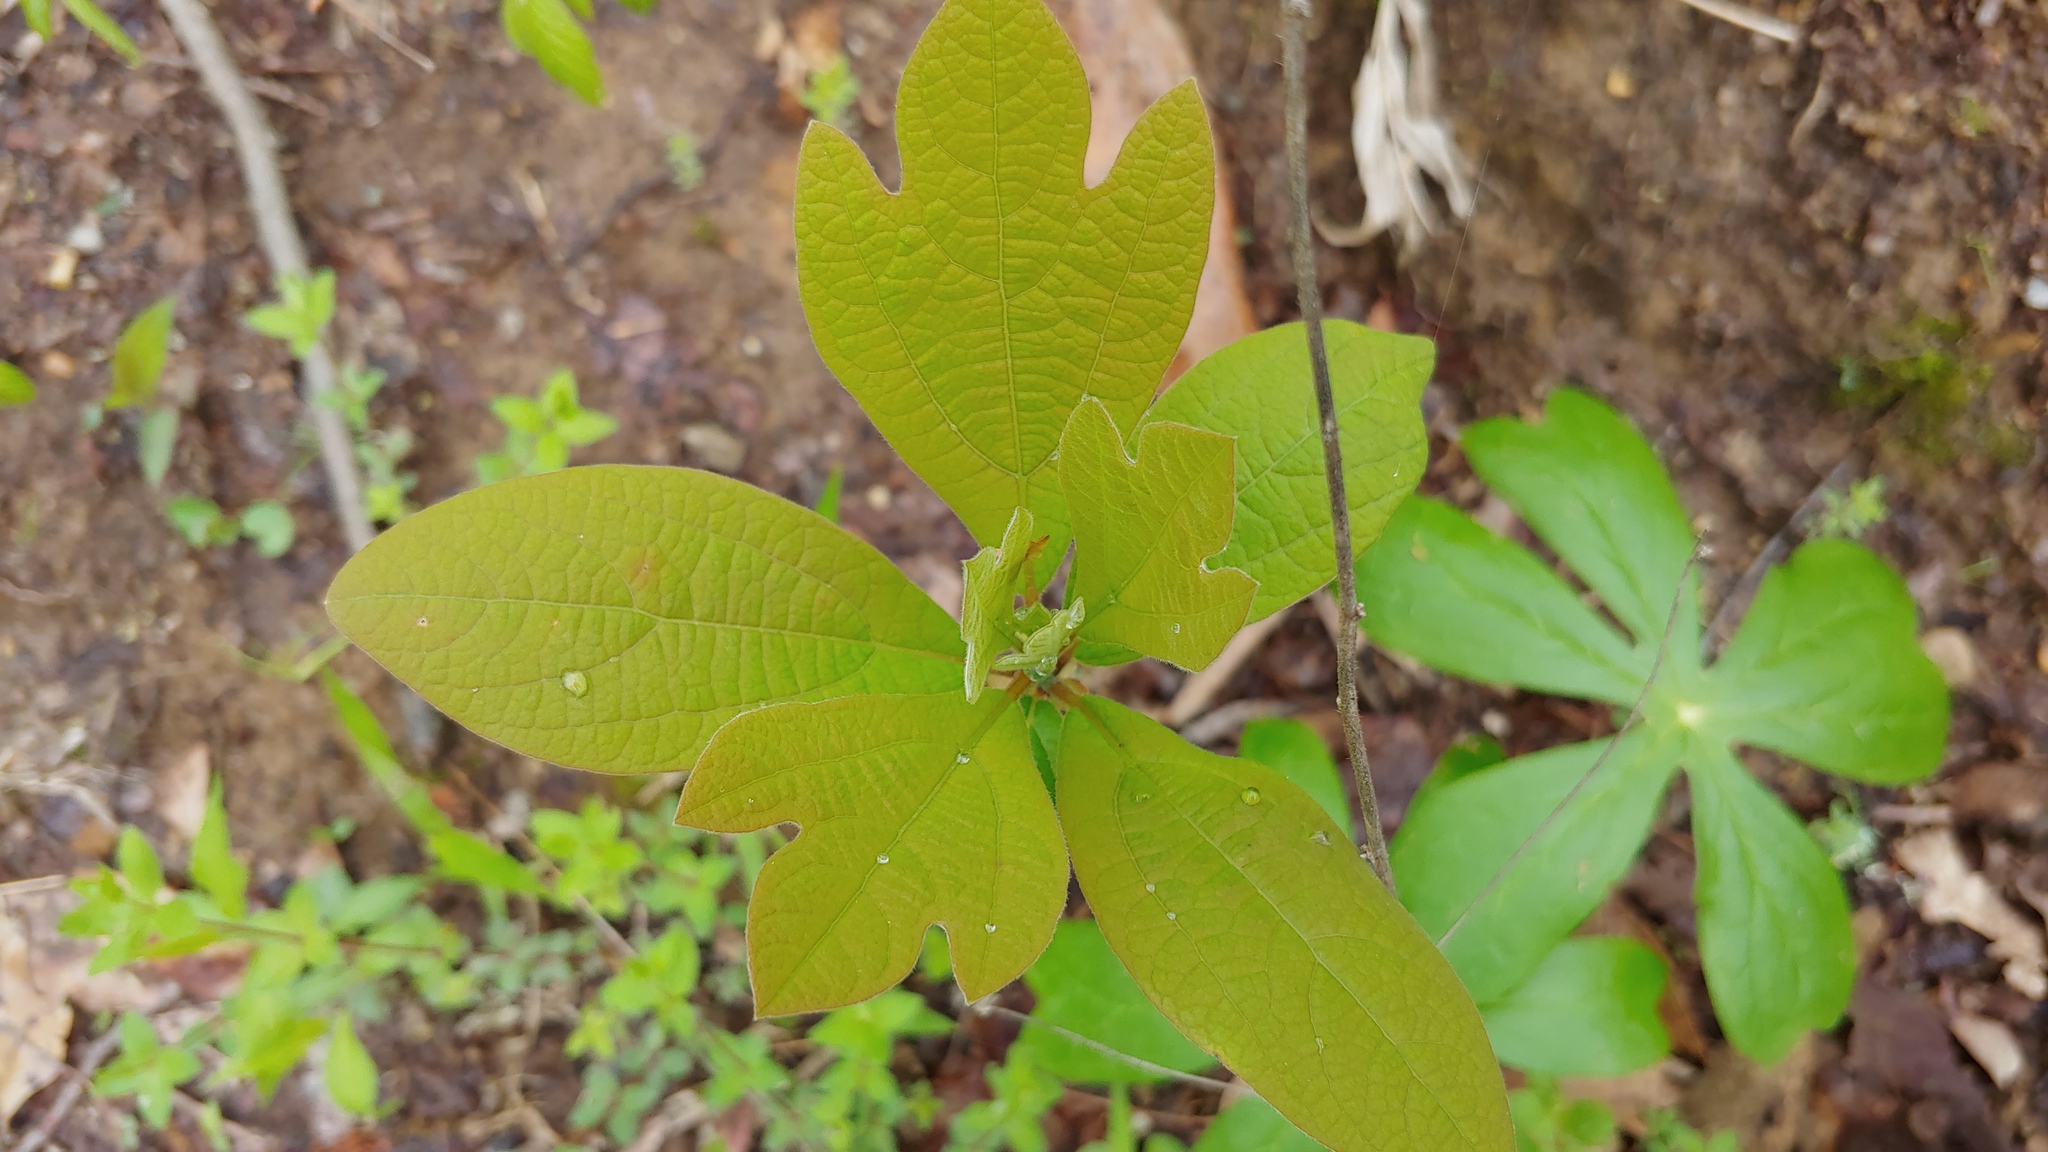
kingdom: Plantae
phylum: Tracheophyta
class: Magnoliopsida
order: Laurales
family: Lauraceae
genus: Sassafras
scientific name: Sassafras albidum
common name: Sassafras
